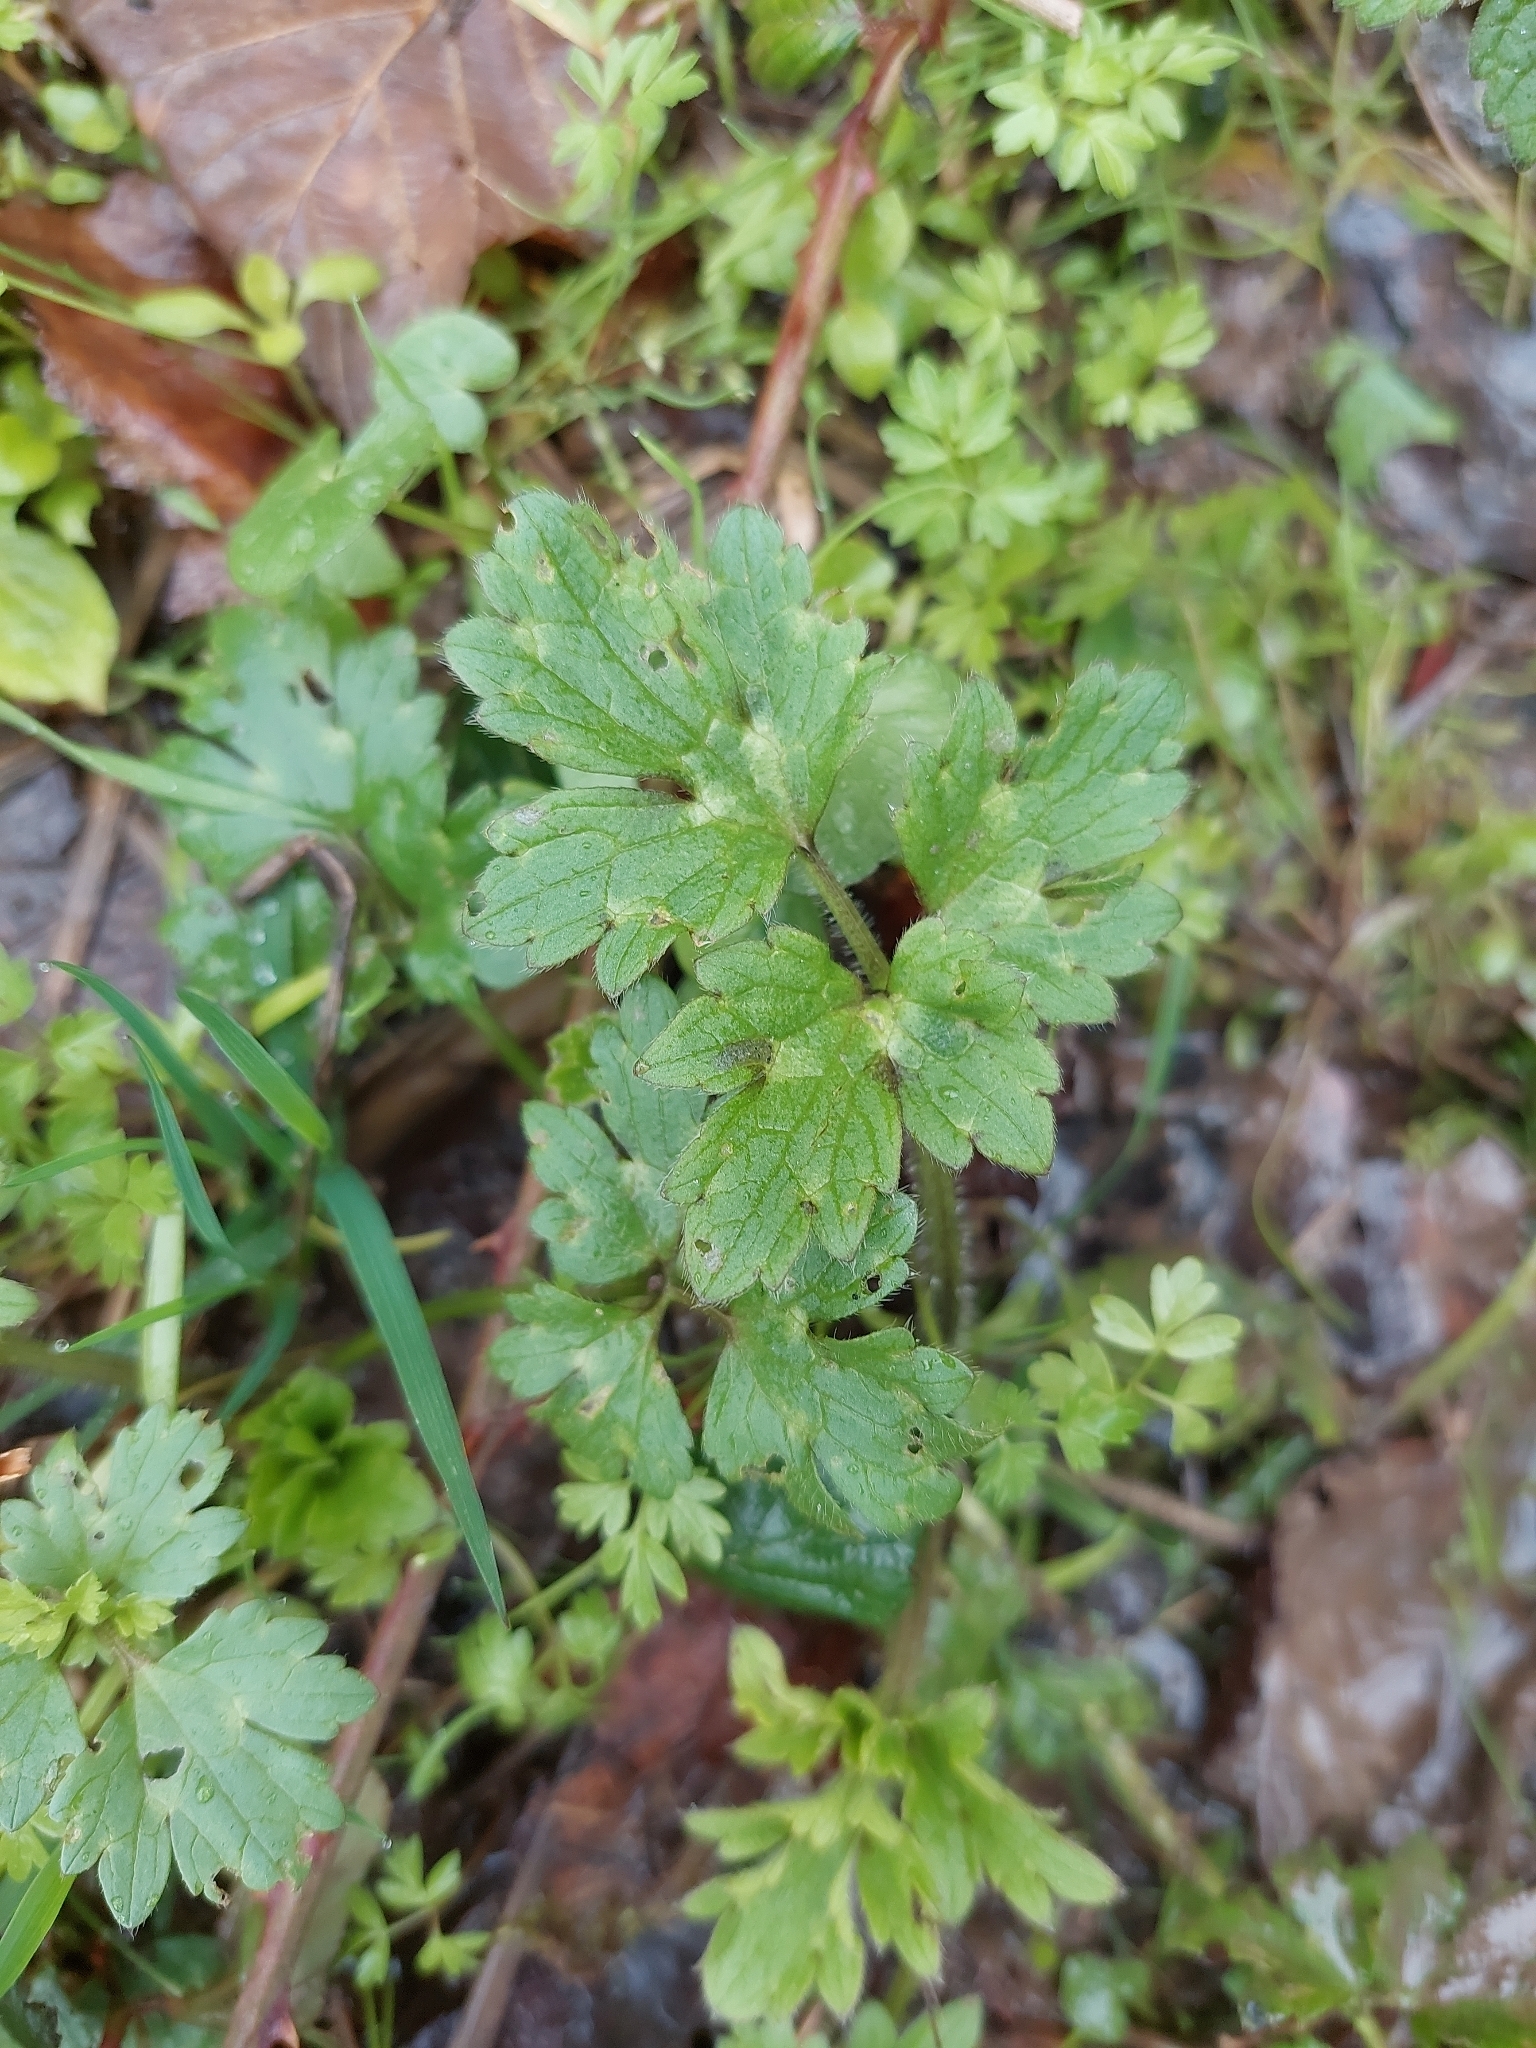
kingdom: Plantae
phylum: Tracheophyta
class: Magnoliopsida
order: Ranunculales
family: Ranunculaceae
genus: Ranunculus
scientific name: Ranunculus repens
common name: Creeping buttercup
